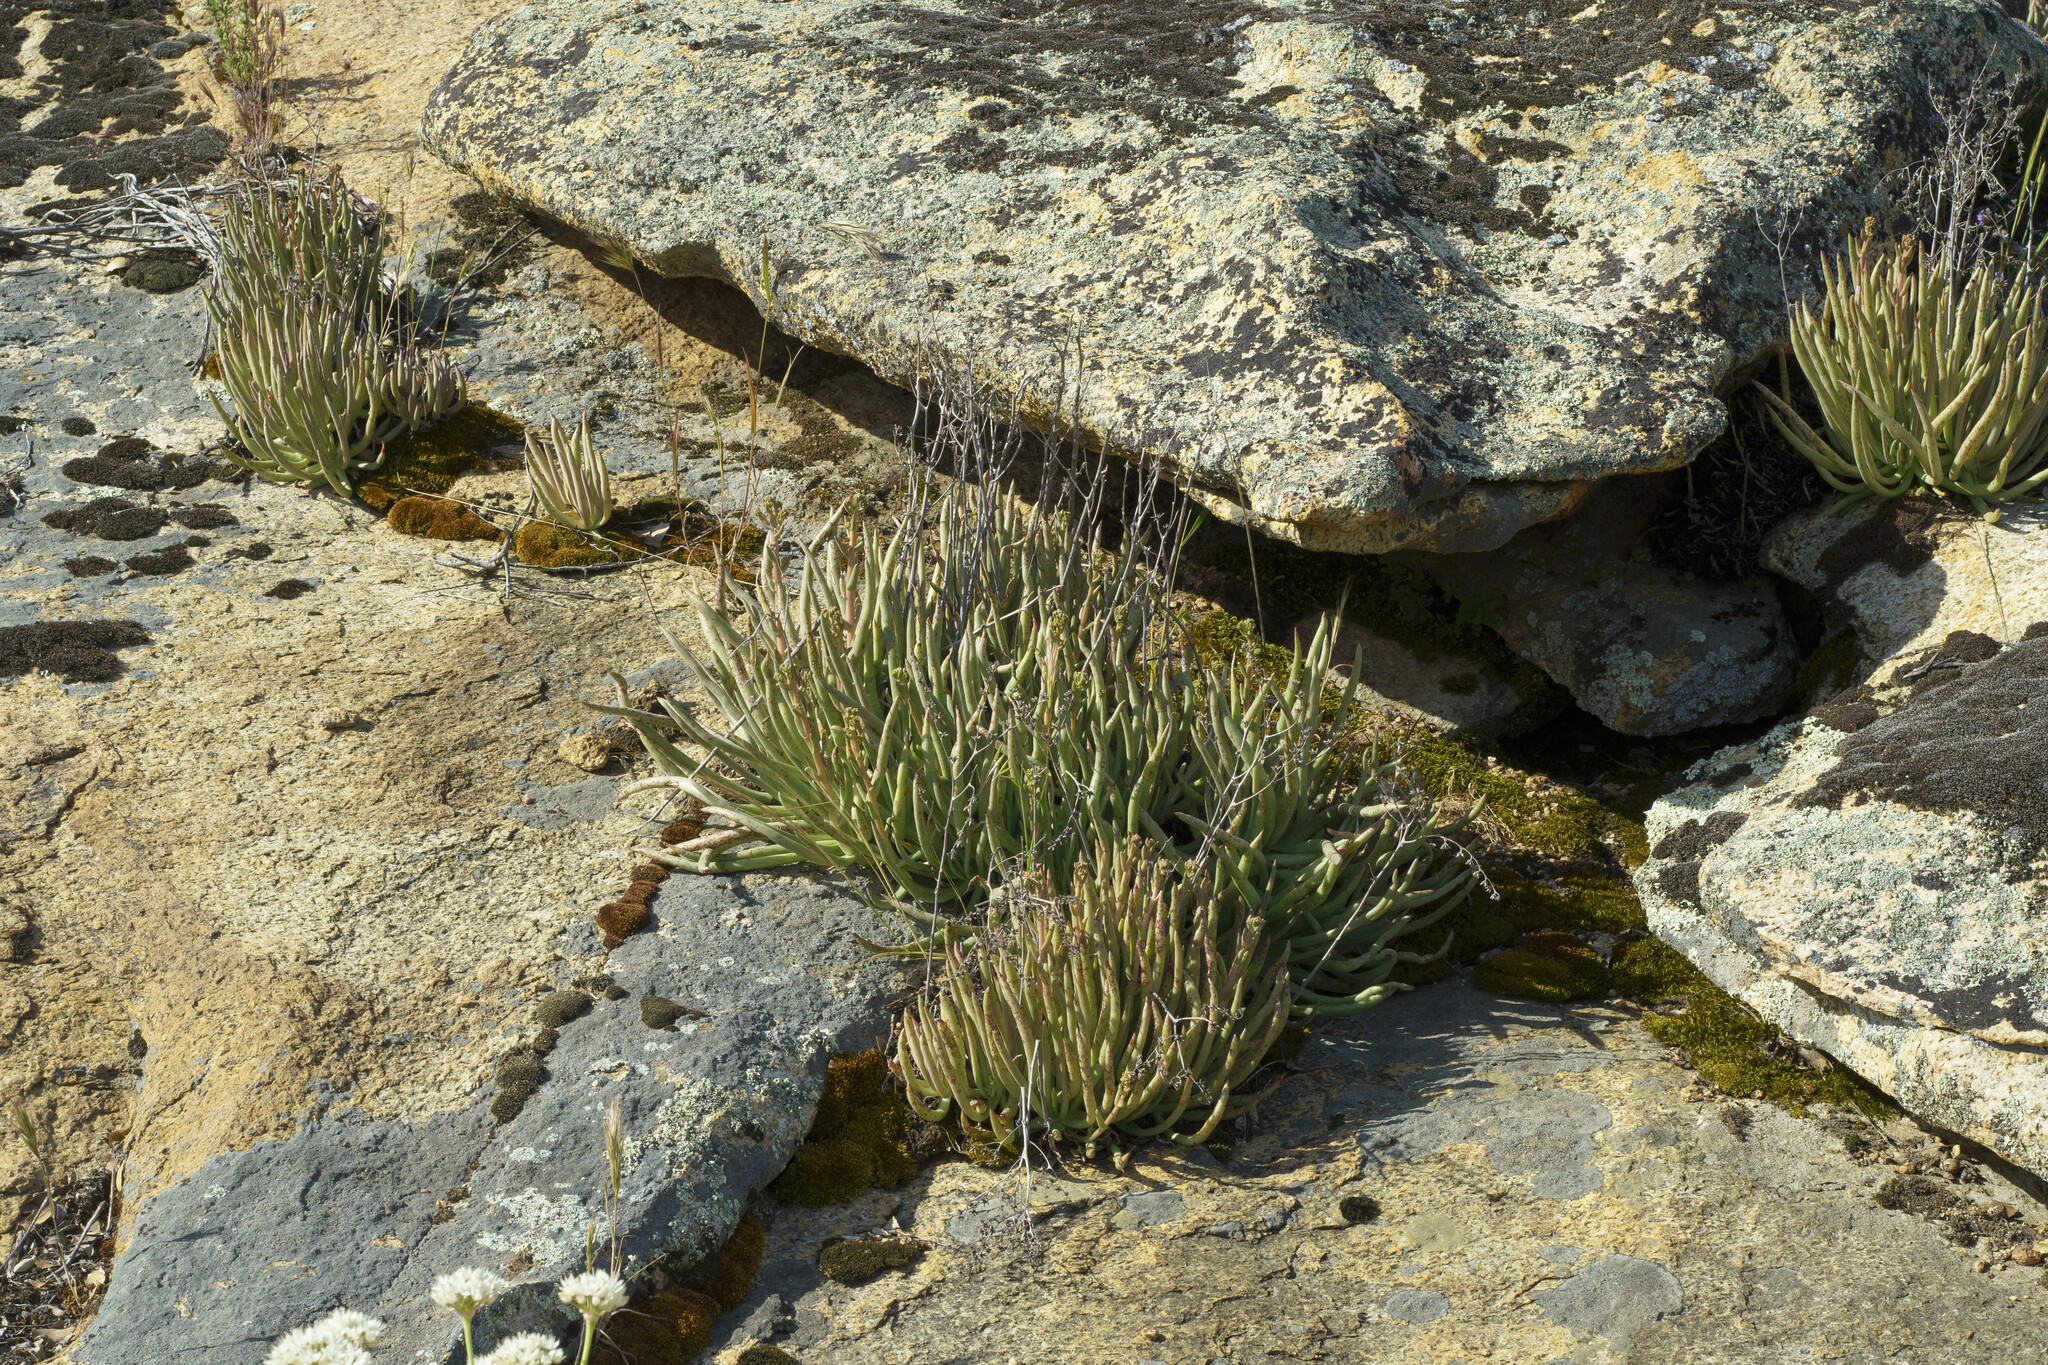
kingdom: Plantae
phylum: Tracheophyta
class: Magnoliopsida
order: Saxifragales
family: Crassulaceae
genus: Dudleya
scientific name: Dudleya edulis
